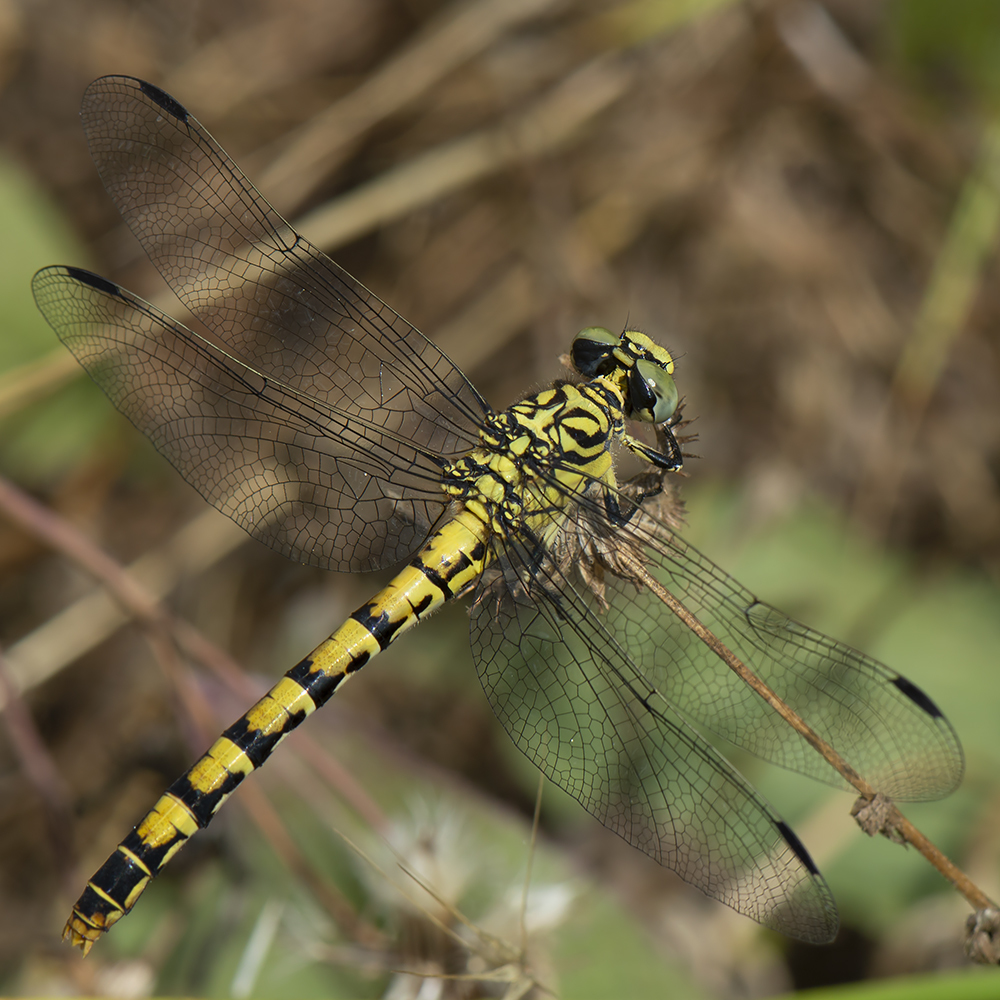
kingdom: Animalia
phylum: Arthropoda
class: Insecta
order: Odonata
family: Gomphidae
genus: Onychogomphus
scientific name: Onychogomphus forcipatus
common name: Small pincertail
